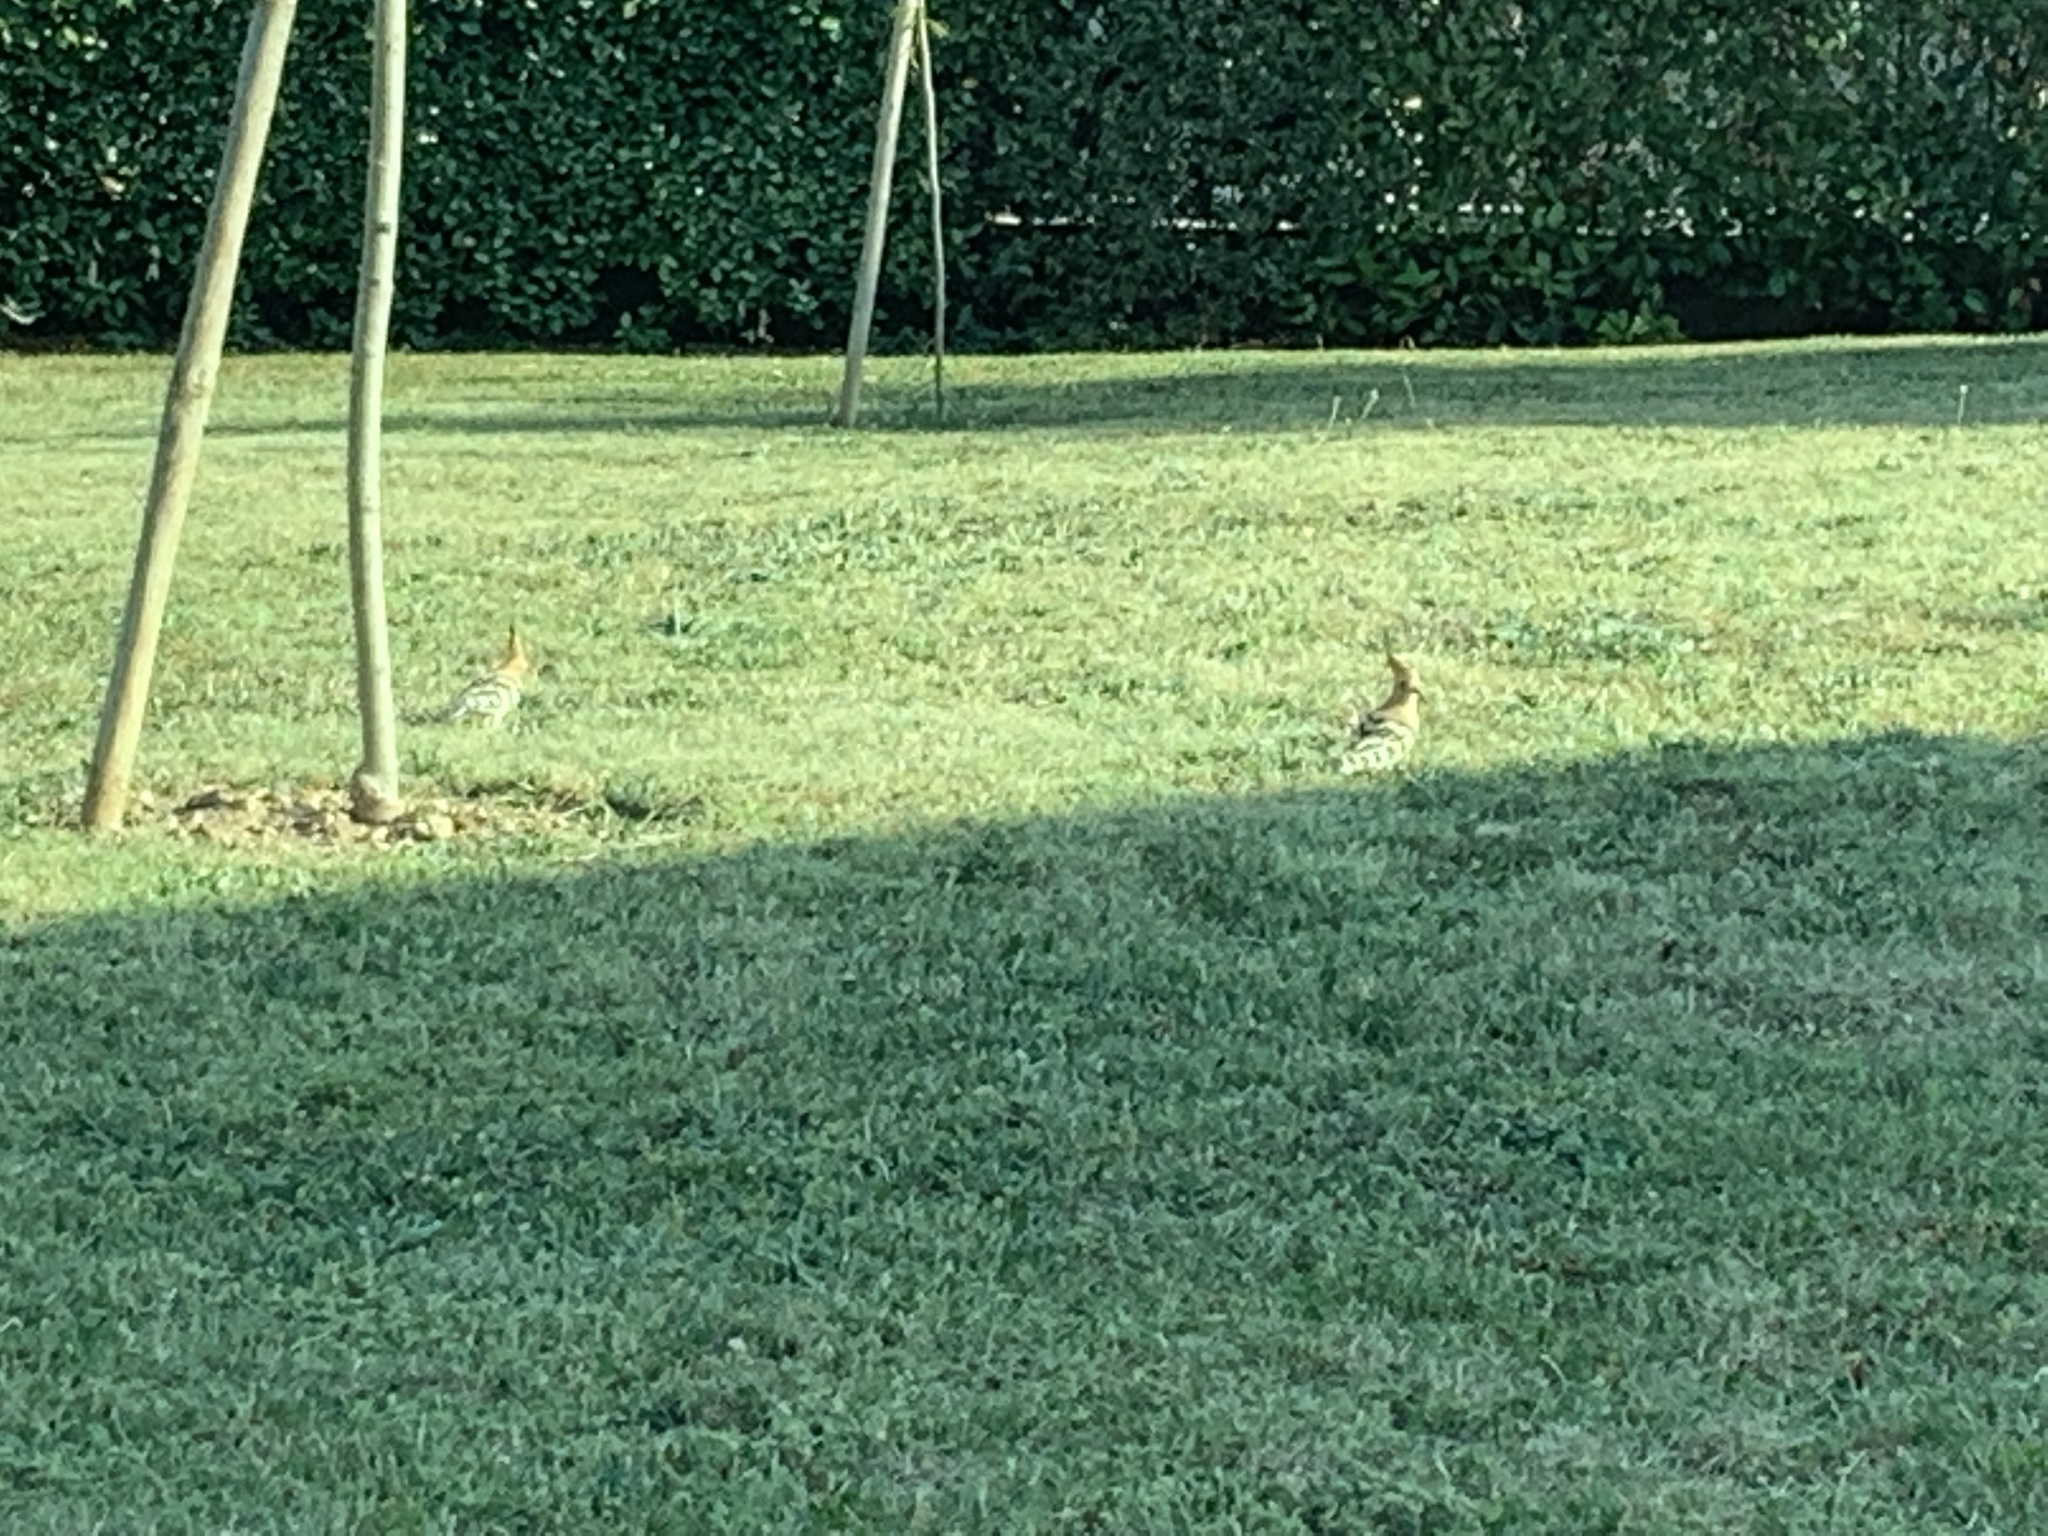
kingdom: Animalia
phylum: Chordata
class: Aves
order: Bucerotiformes
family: Upupidae
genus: Upupa
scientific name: Upupa epops
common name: Eurasian hoopoe
